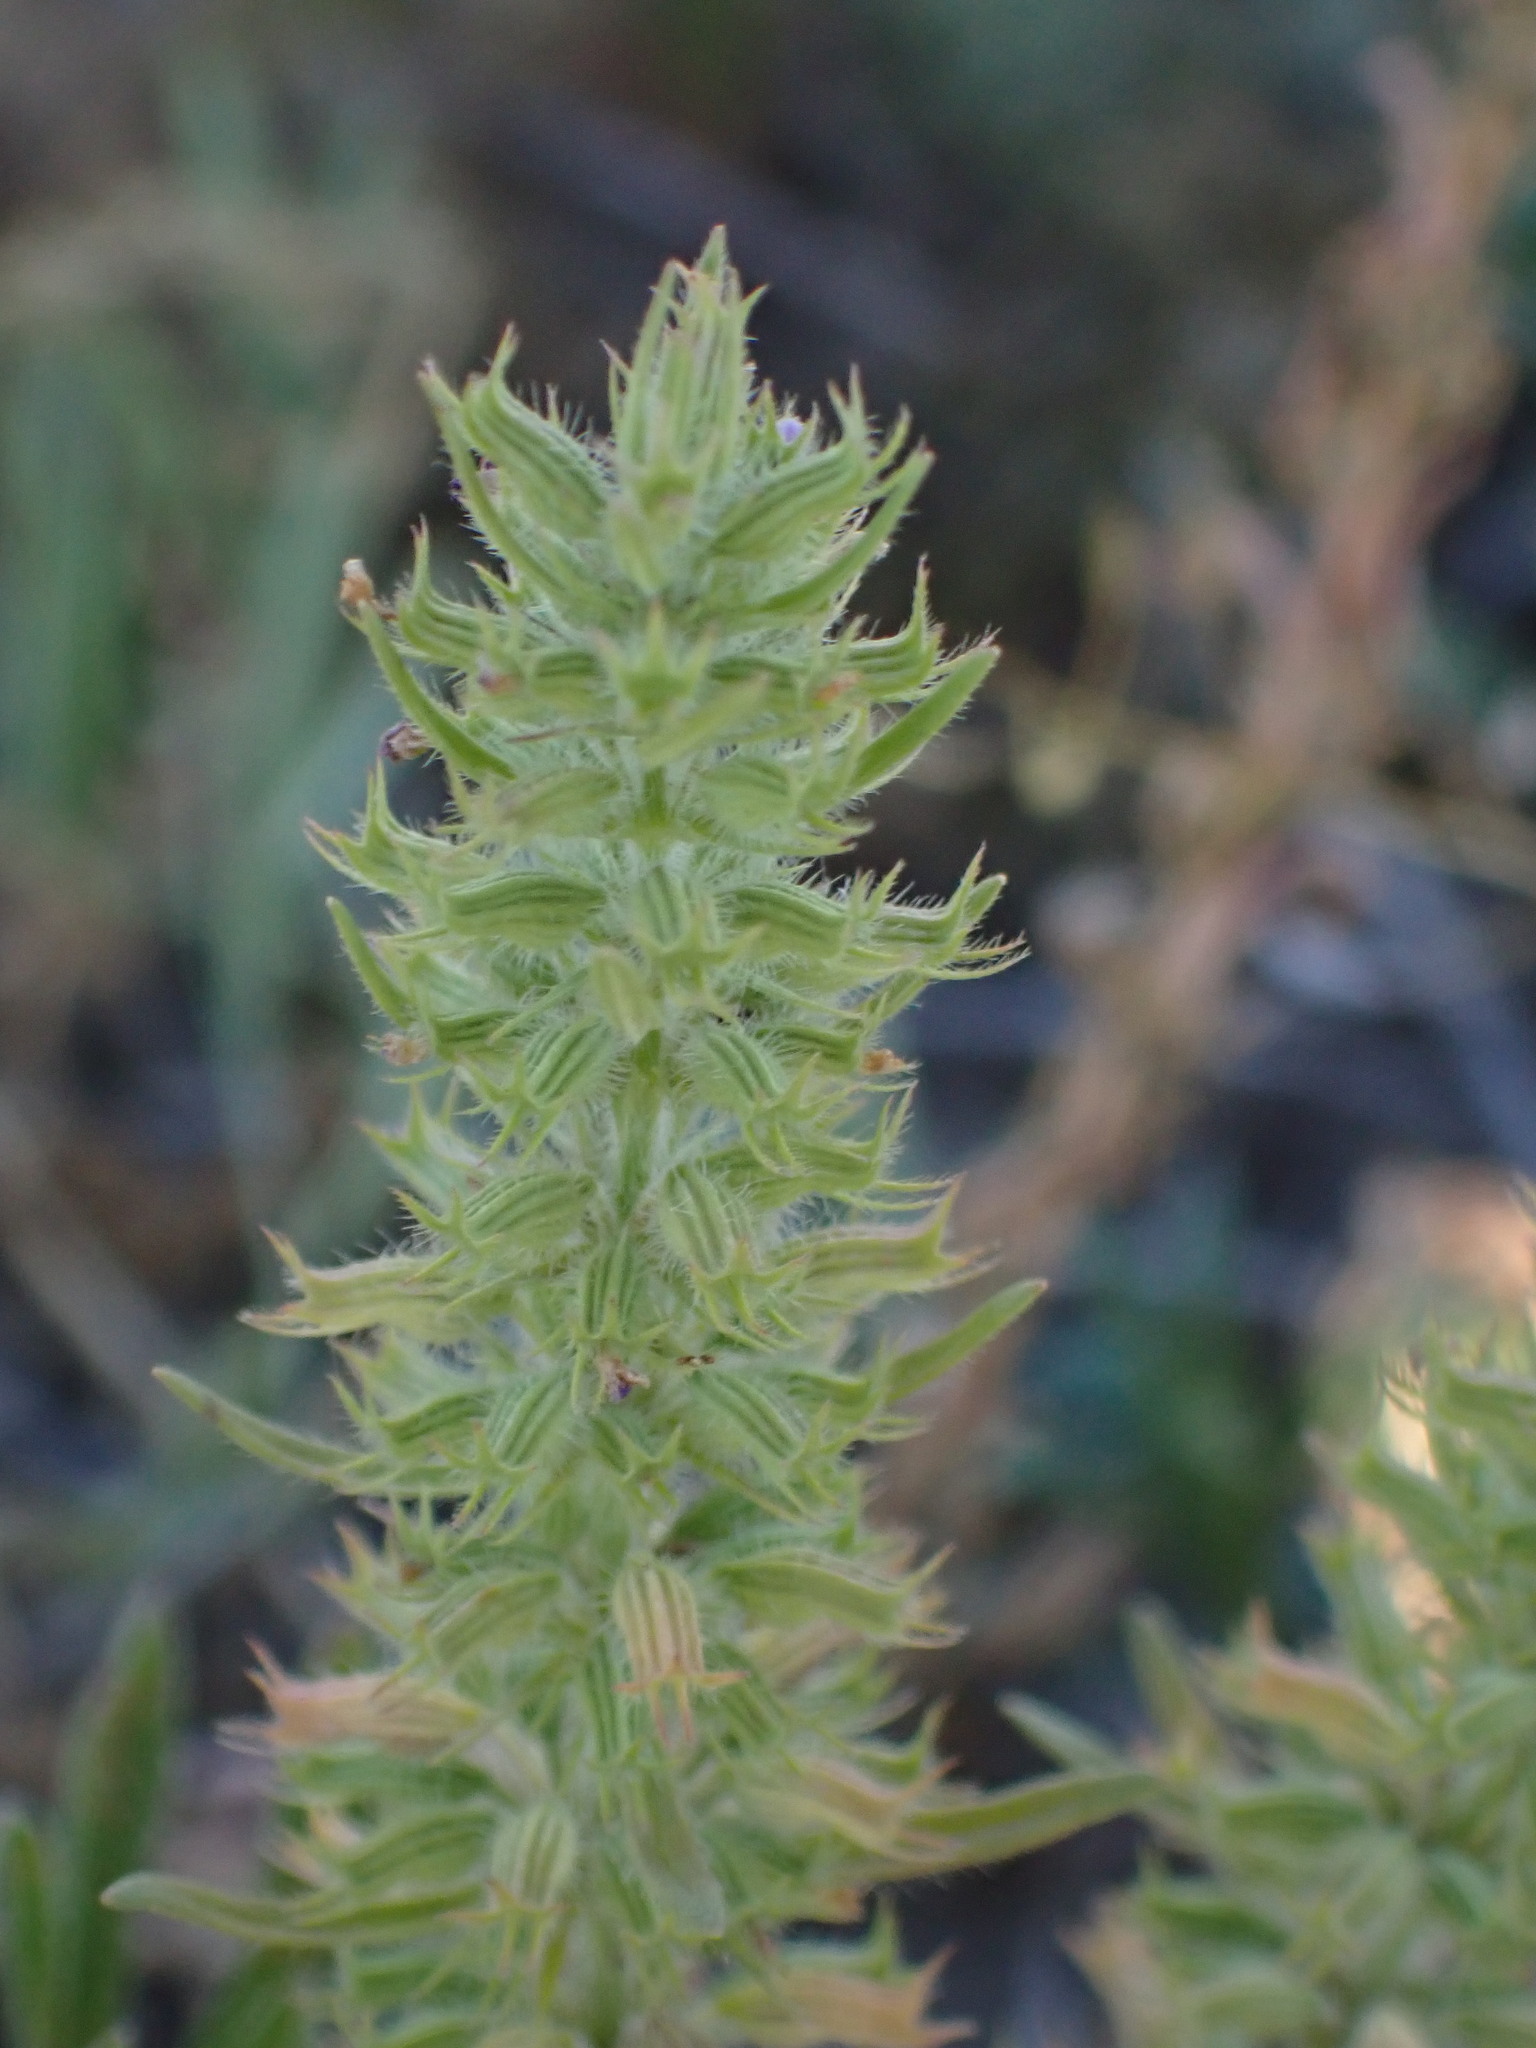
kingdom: Plantae
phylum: Tracheophyta
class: Magnoliopsida
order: Lamiales
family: Lamiaceae
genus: Hedeoma
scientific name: Hedeoma hispida
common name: Mock pennyroyal
